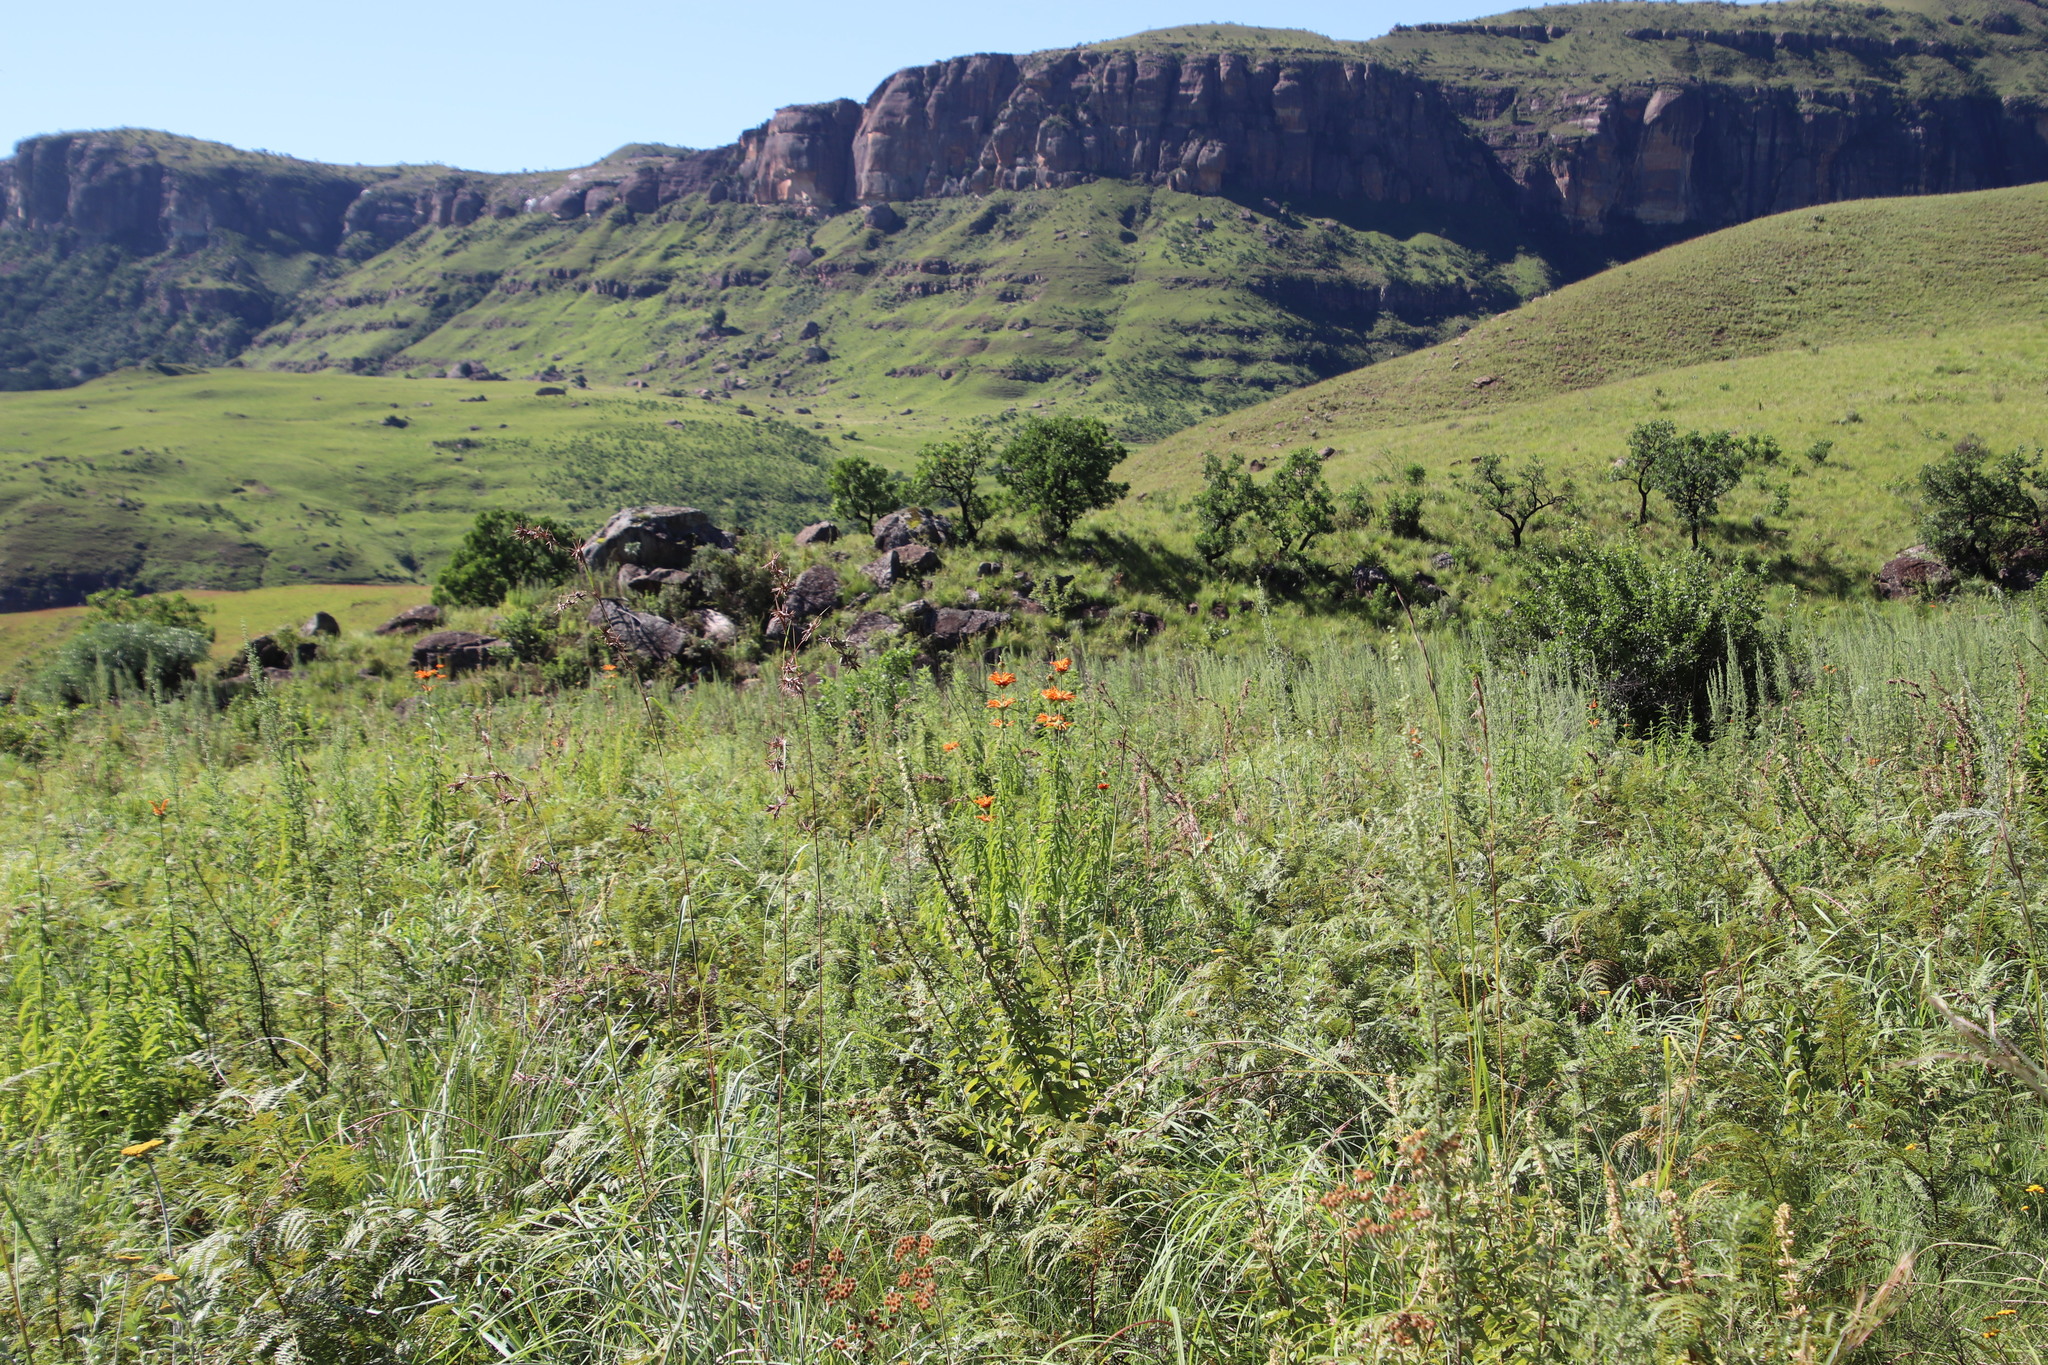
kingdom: Plantae
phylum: Tracheophyta
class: Magnoliopsida
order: Lamiales
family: Lamiaceae
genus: Leonotis
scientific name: Leonotis leonurus
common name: Lion's ear
